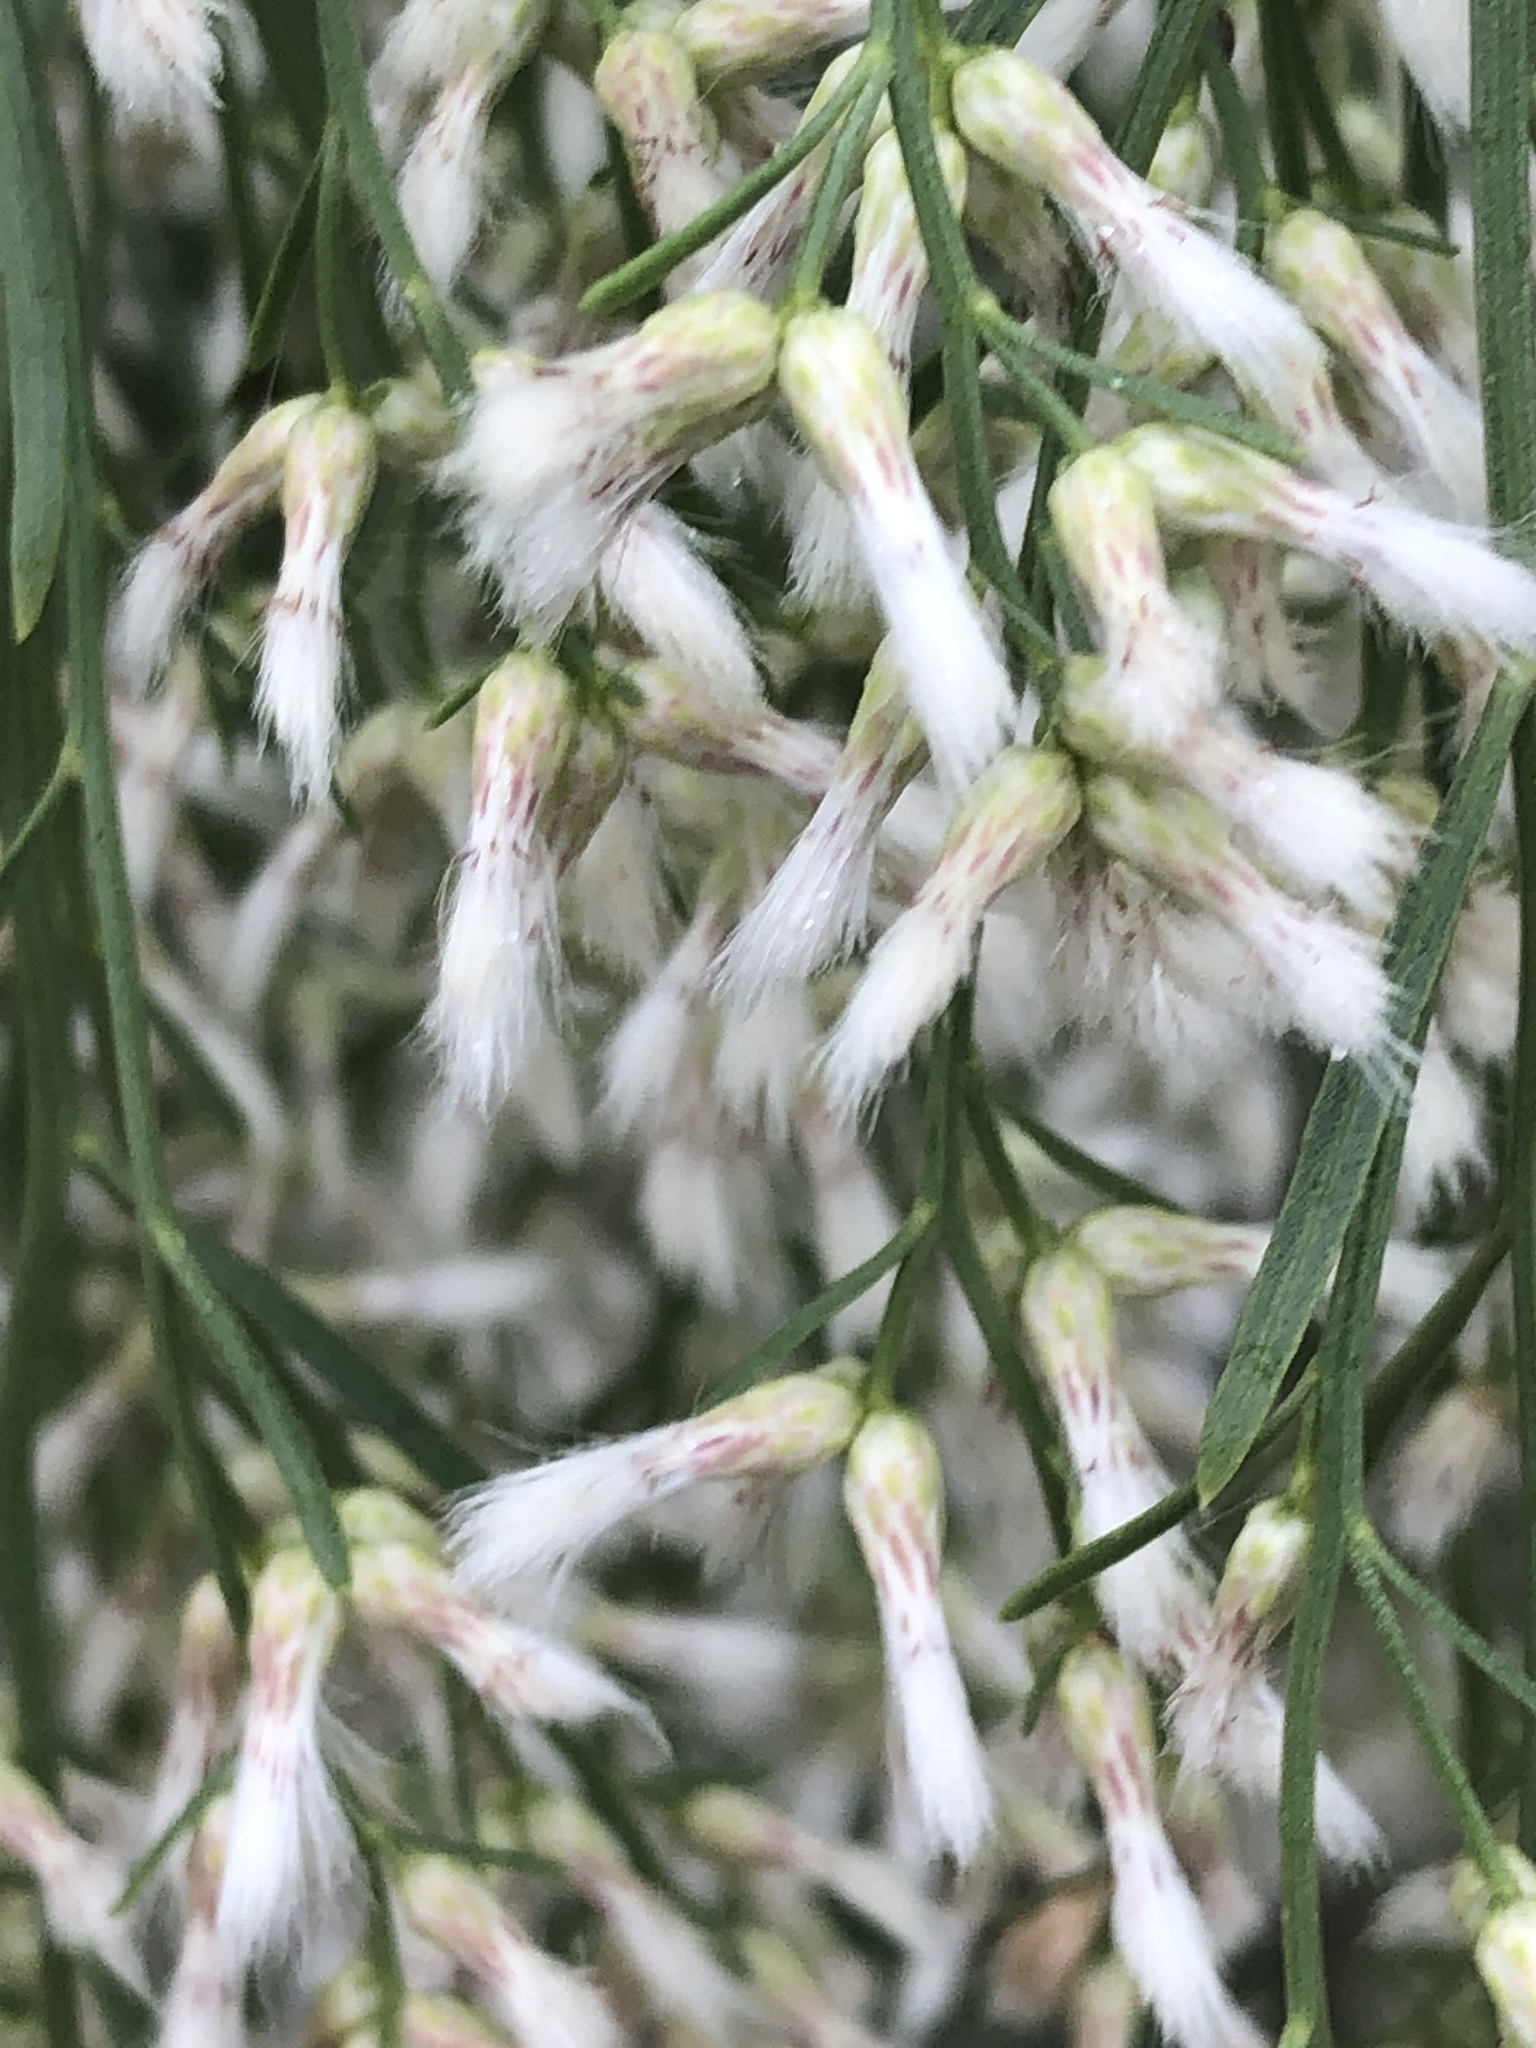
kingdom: Plantae
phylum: Tracheophyta
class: Magnoliopsida
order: Asterales
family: Asteraceae
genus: Baccharis
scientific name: Baccharis neglecta
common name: Roosevelt-weed
